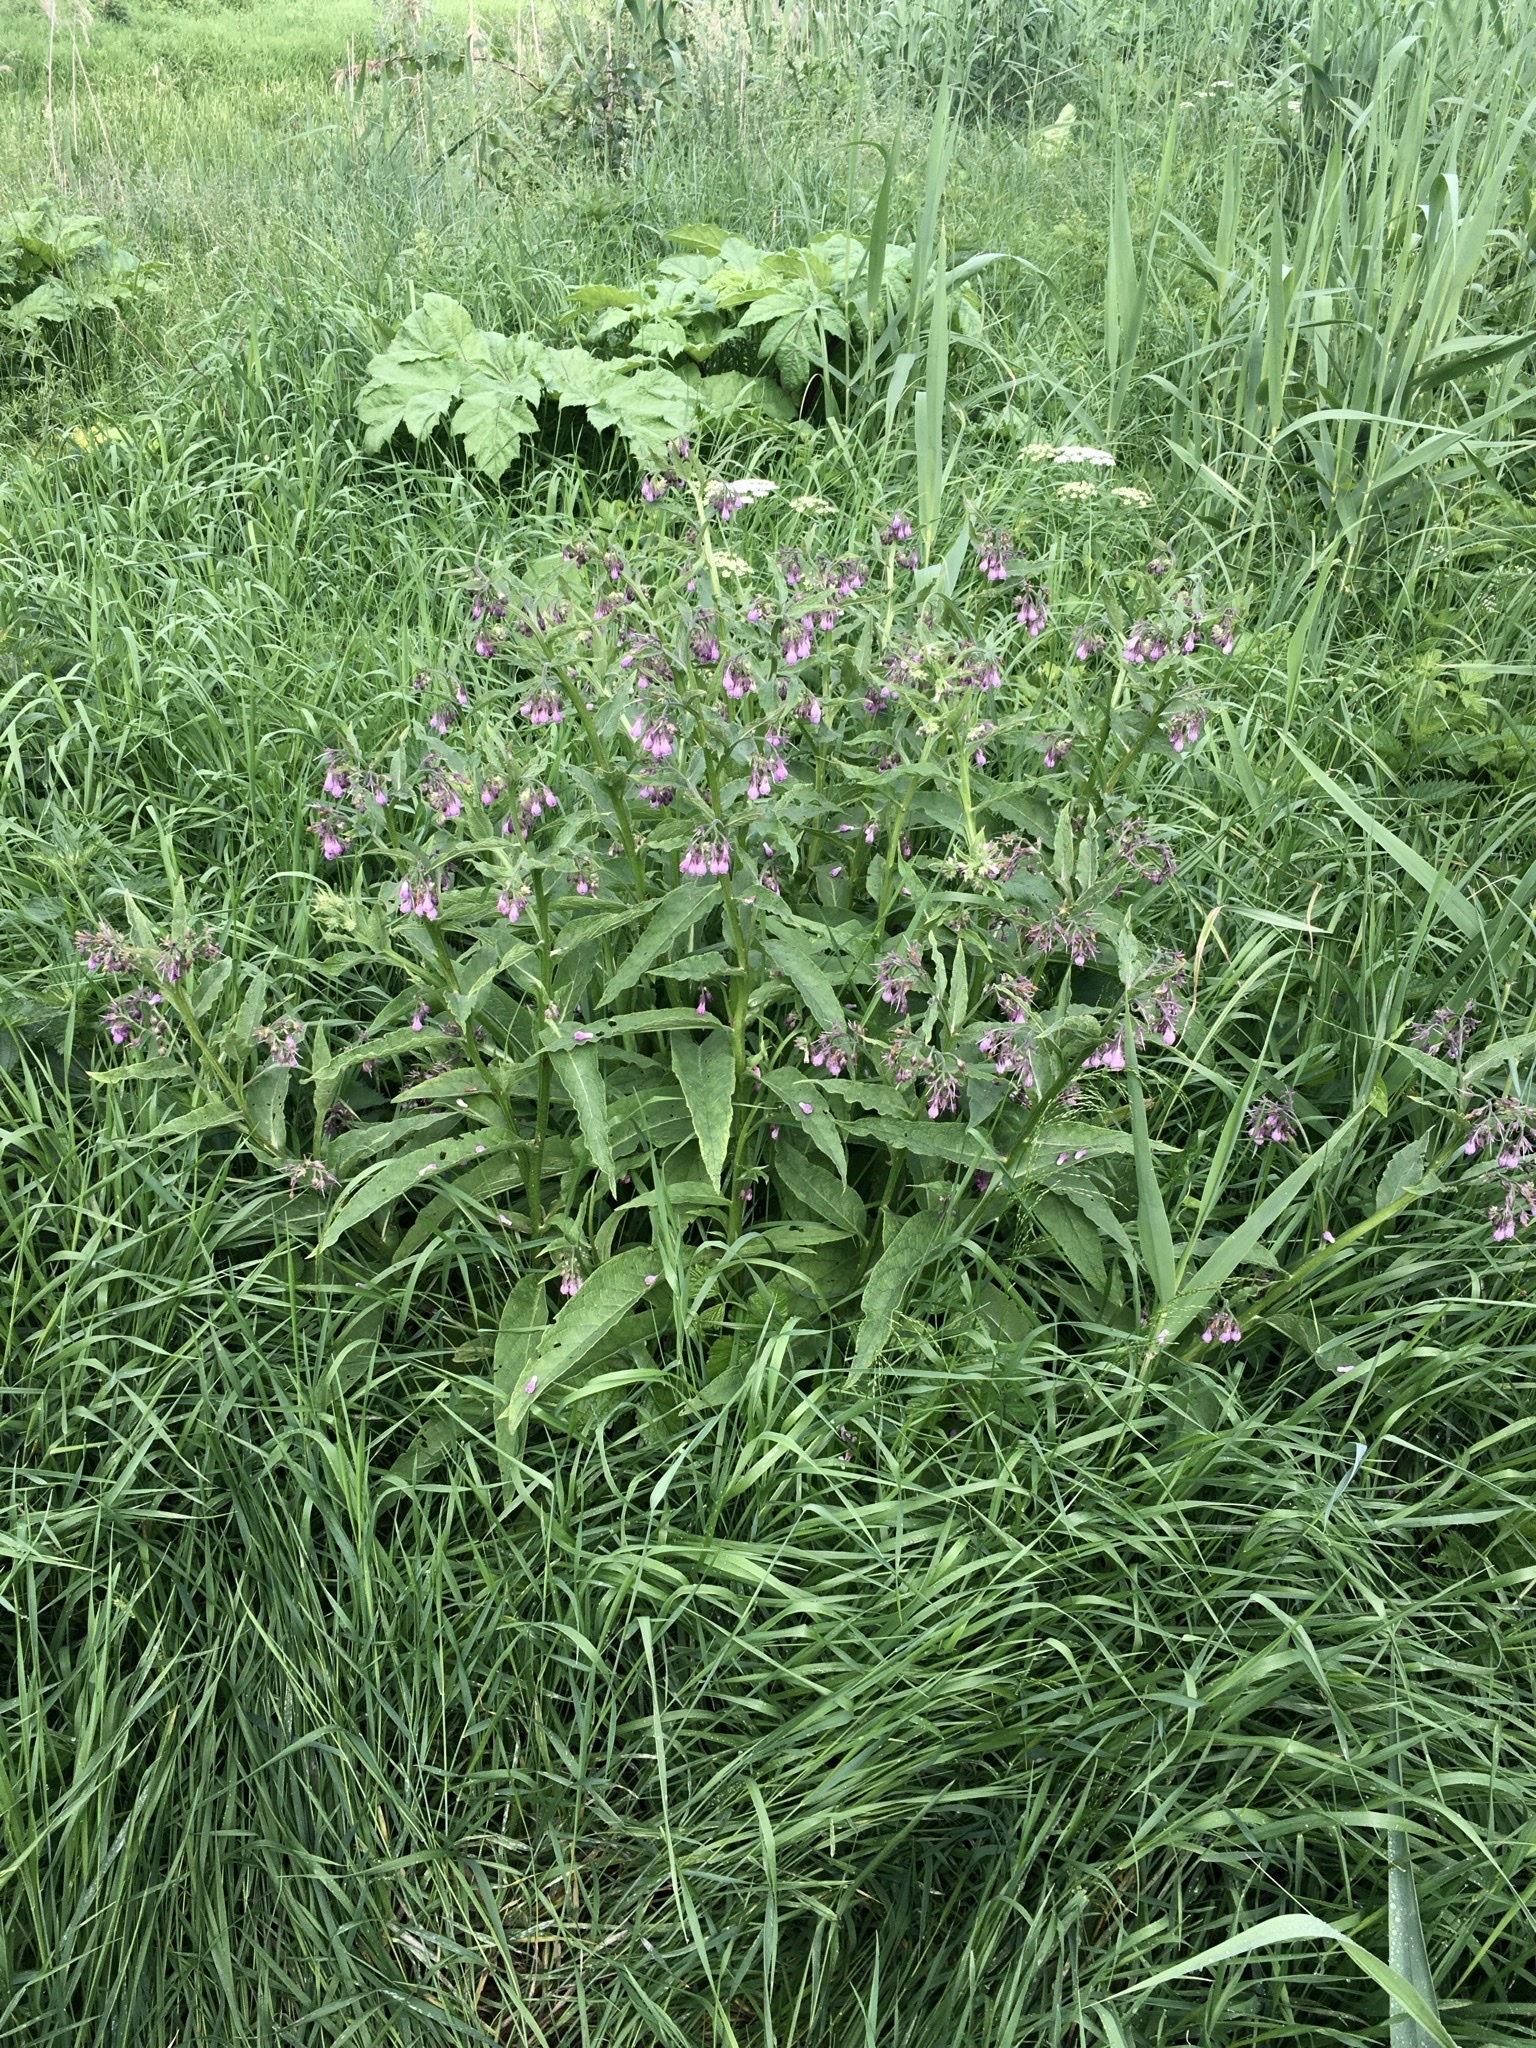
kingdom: Plantae
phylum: Tracheophyta
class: Magnoliopsida
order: Boraginales
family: Boraginaceae
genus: Symphytum
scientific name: Symphytum officinale
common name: Common comfrey
